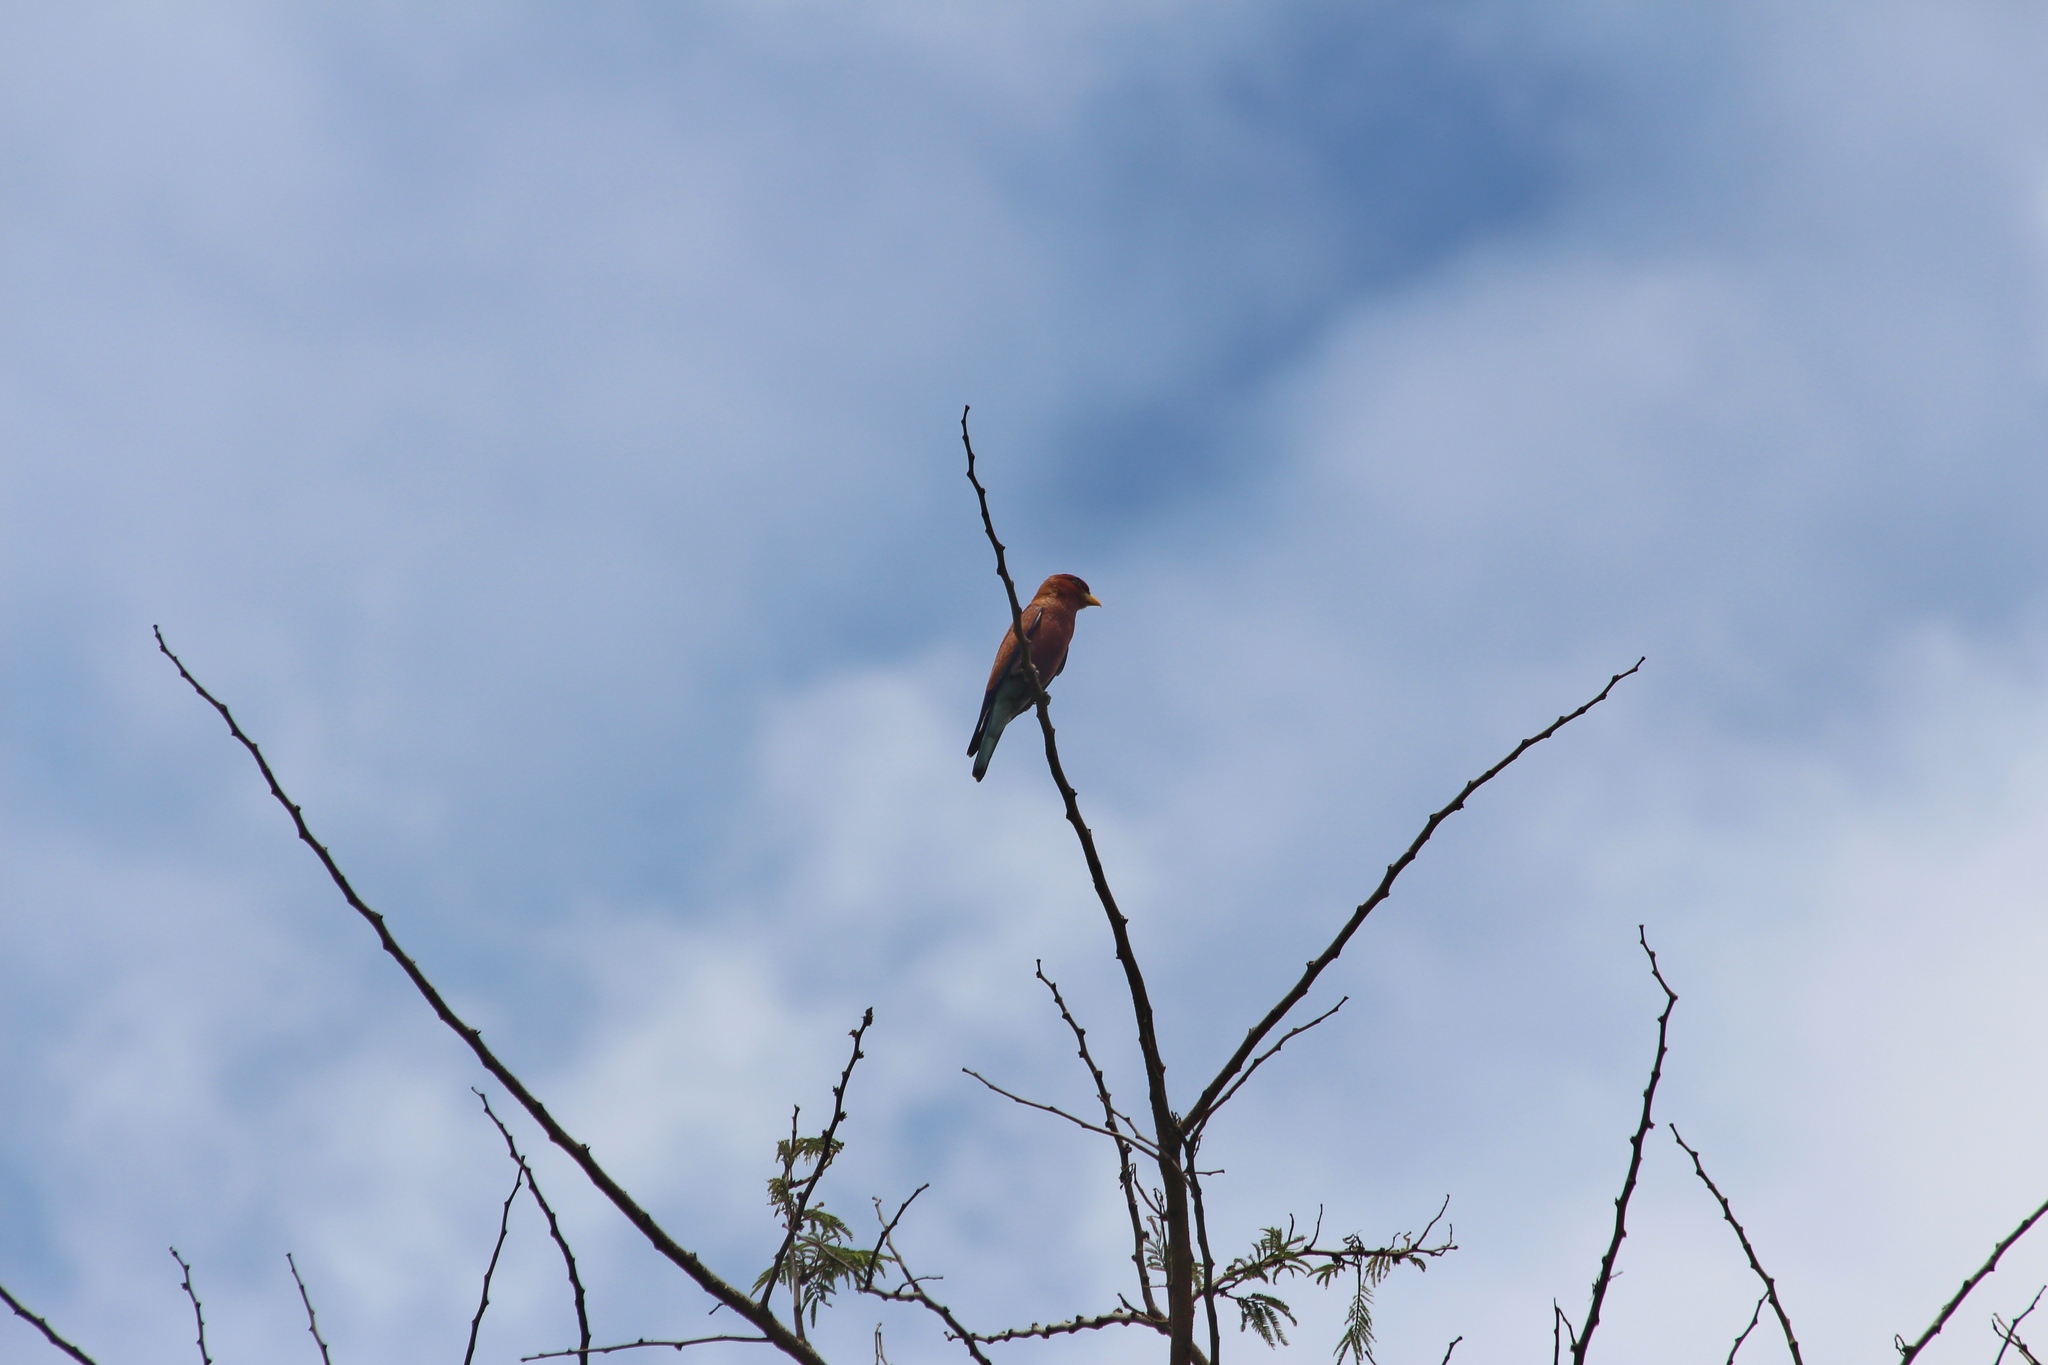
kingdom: Animalia
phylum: Chordata
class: Aves
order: Coraciiformes
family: Coraciidae
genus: Eurystomus
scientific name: Eurystomus glaucurus
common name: Broad-billed roller
